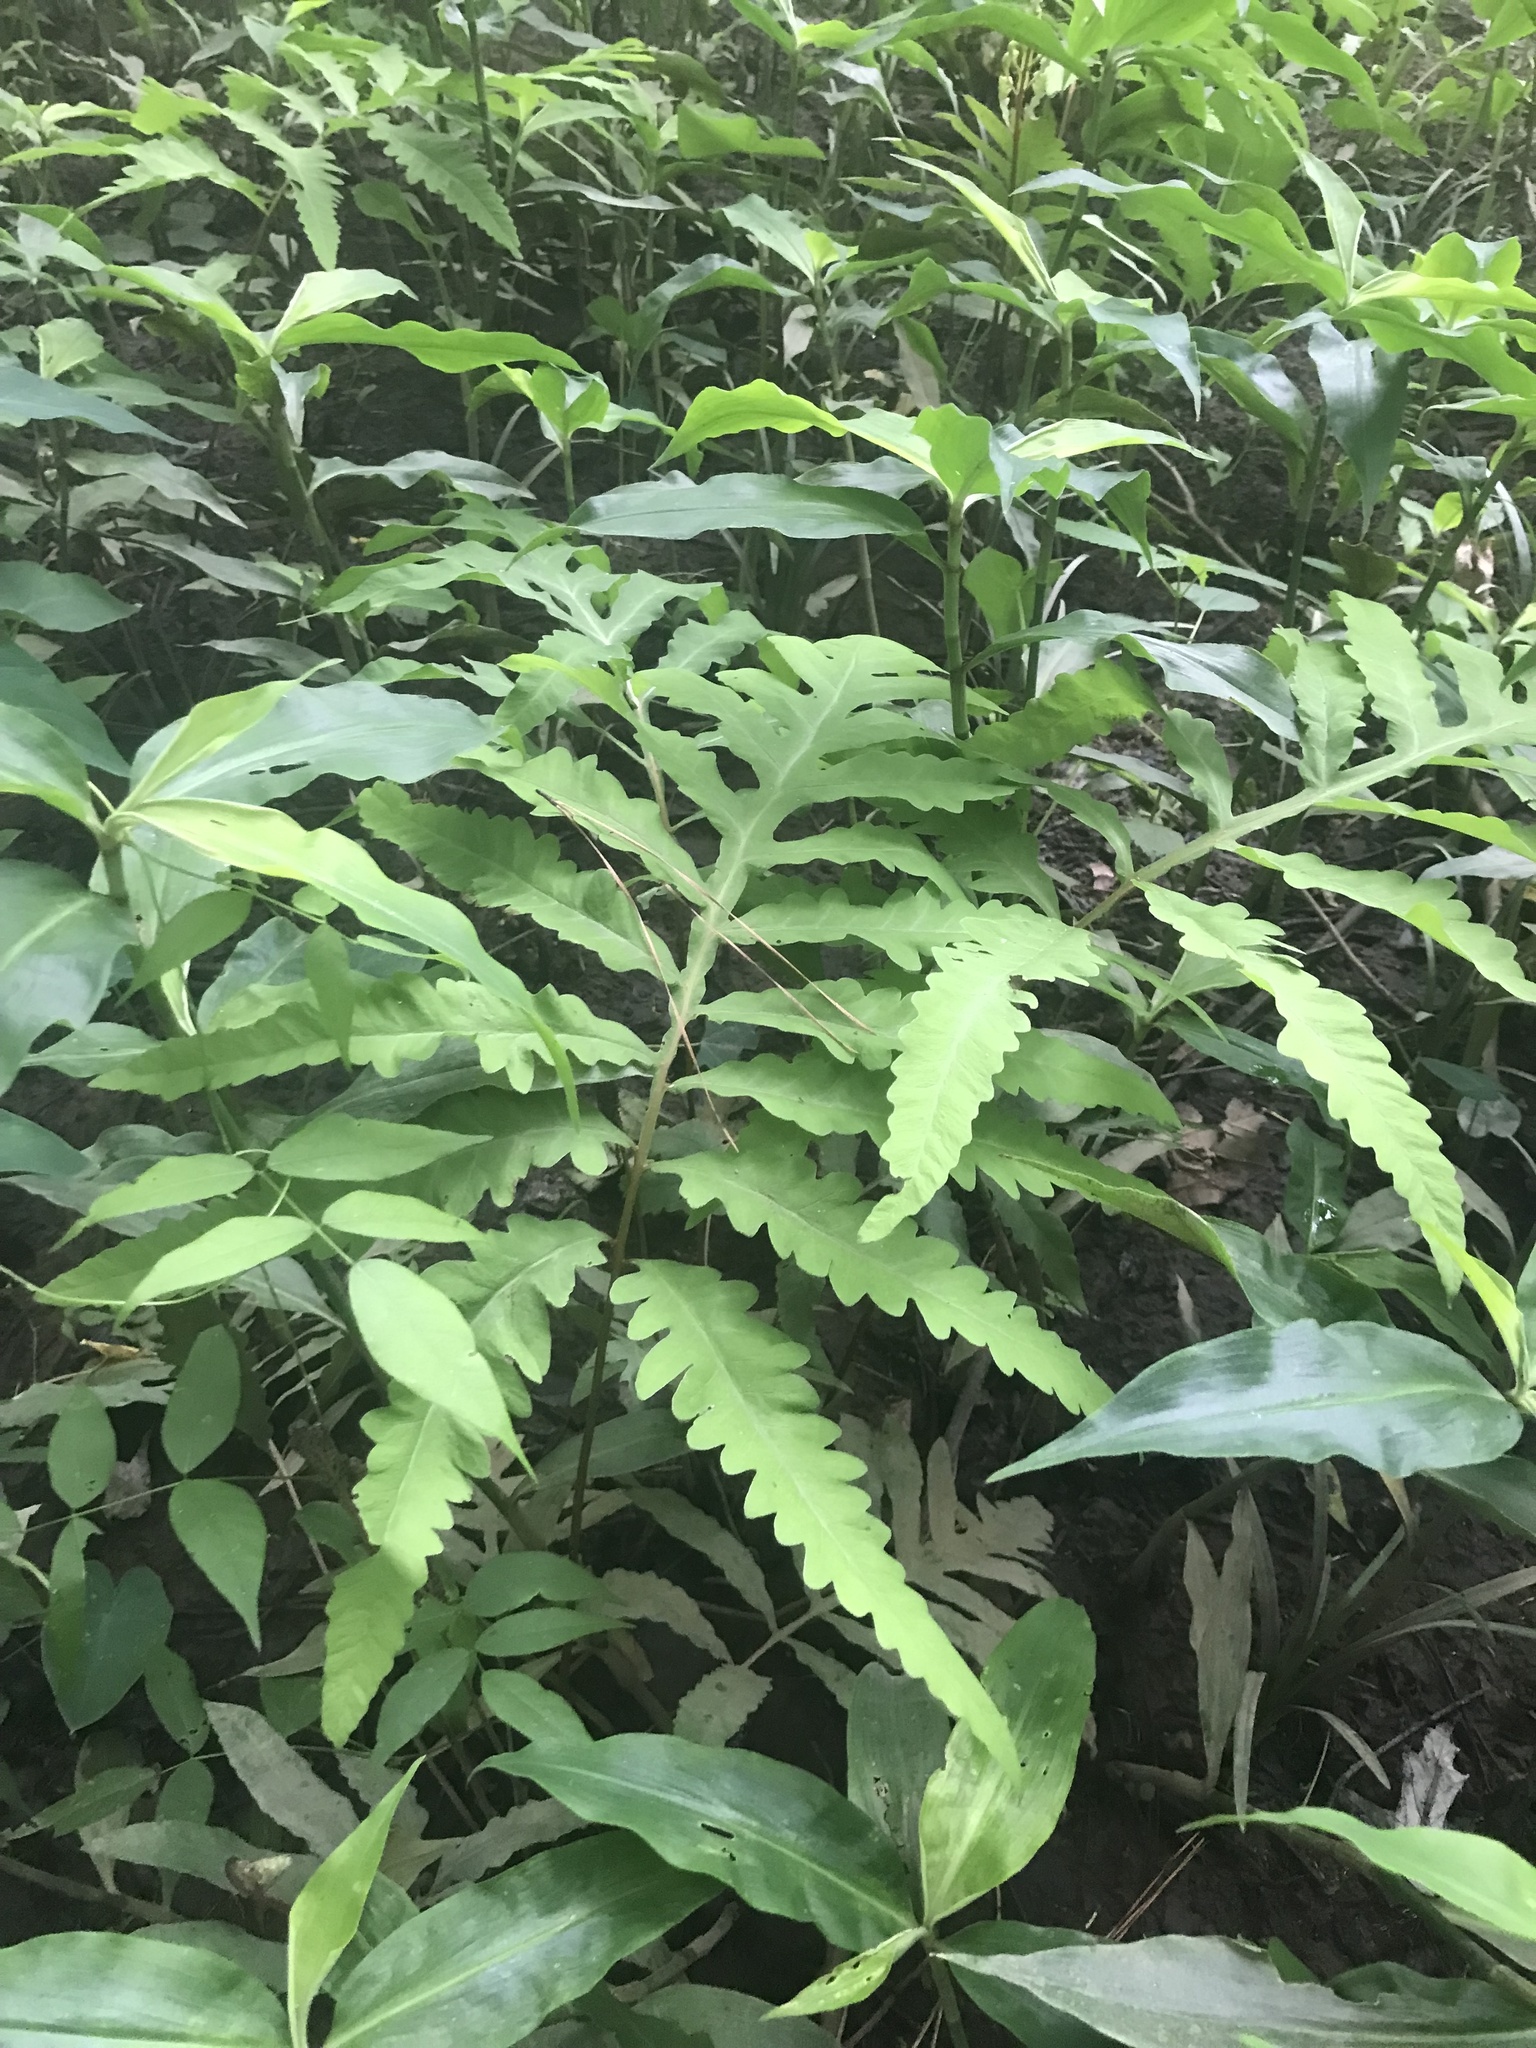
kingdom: Plantae
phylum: Tracheophyta
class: Polypodiopsida
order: Polypodiales
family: Onocleaceae
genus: Onoclea
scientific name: Onoclea sensibilis
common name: Sensitive fern
